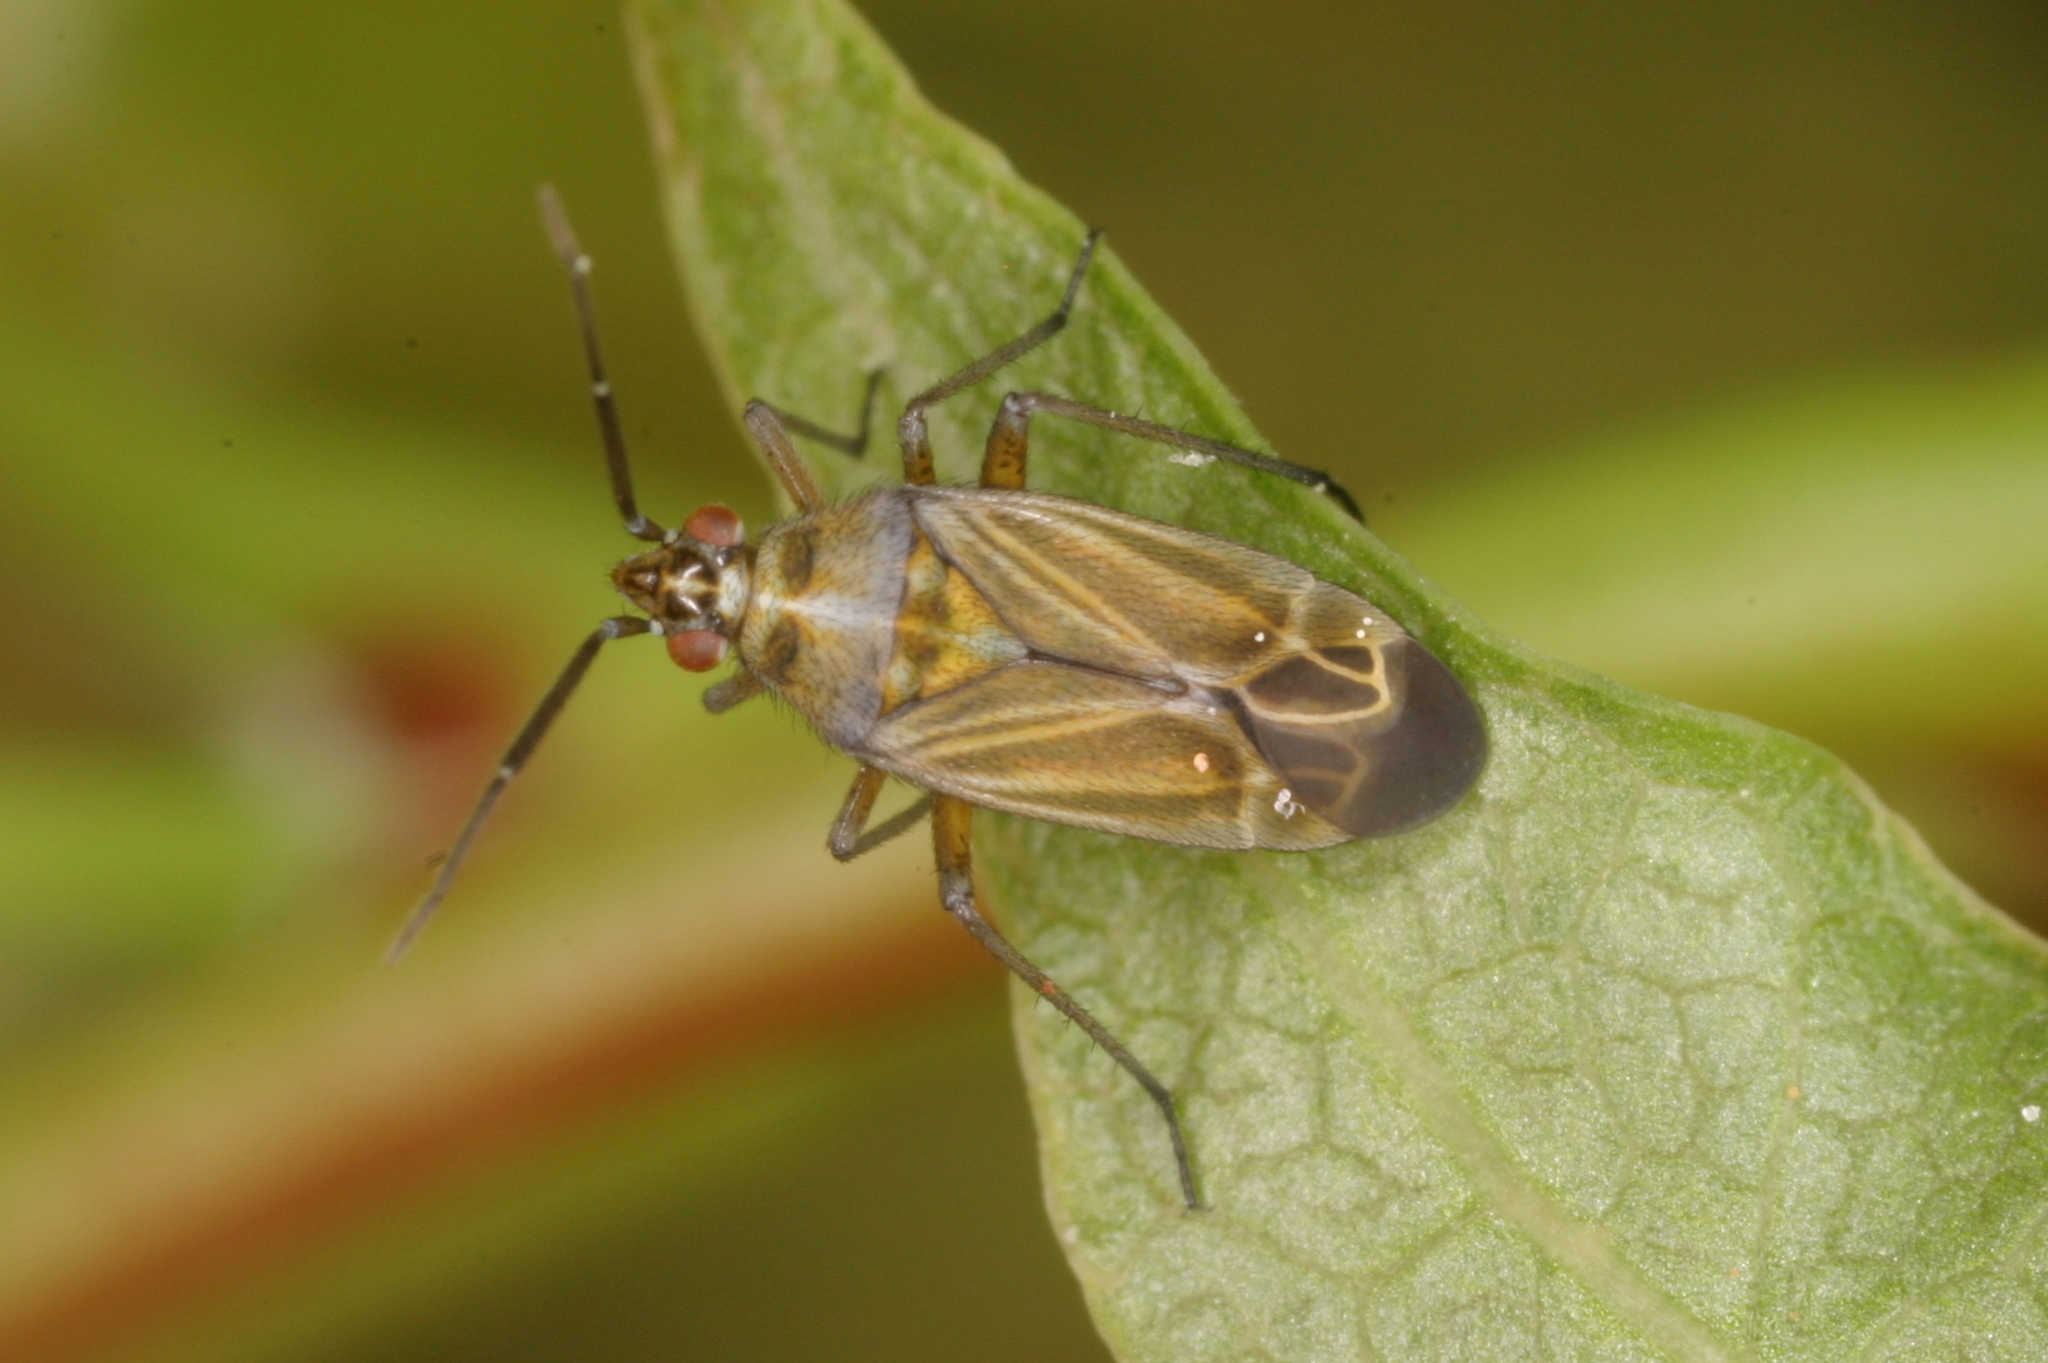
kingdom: Animalia
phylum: Arthropoda
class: Insecta
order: Hemiptera
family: Miridae
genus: Hoplomachus
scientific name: Hoplomachus thunbergii
